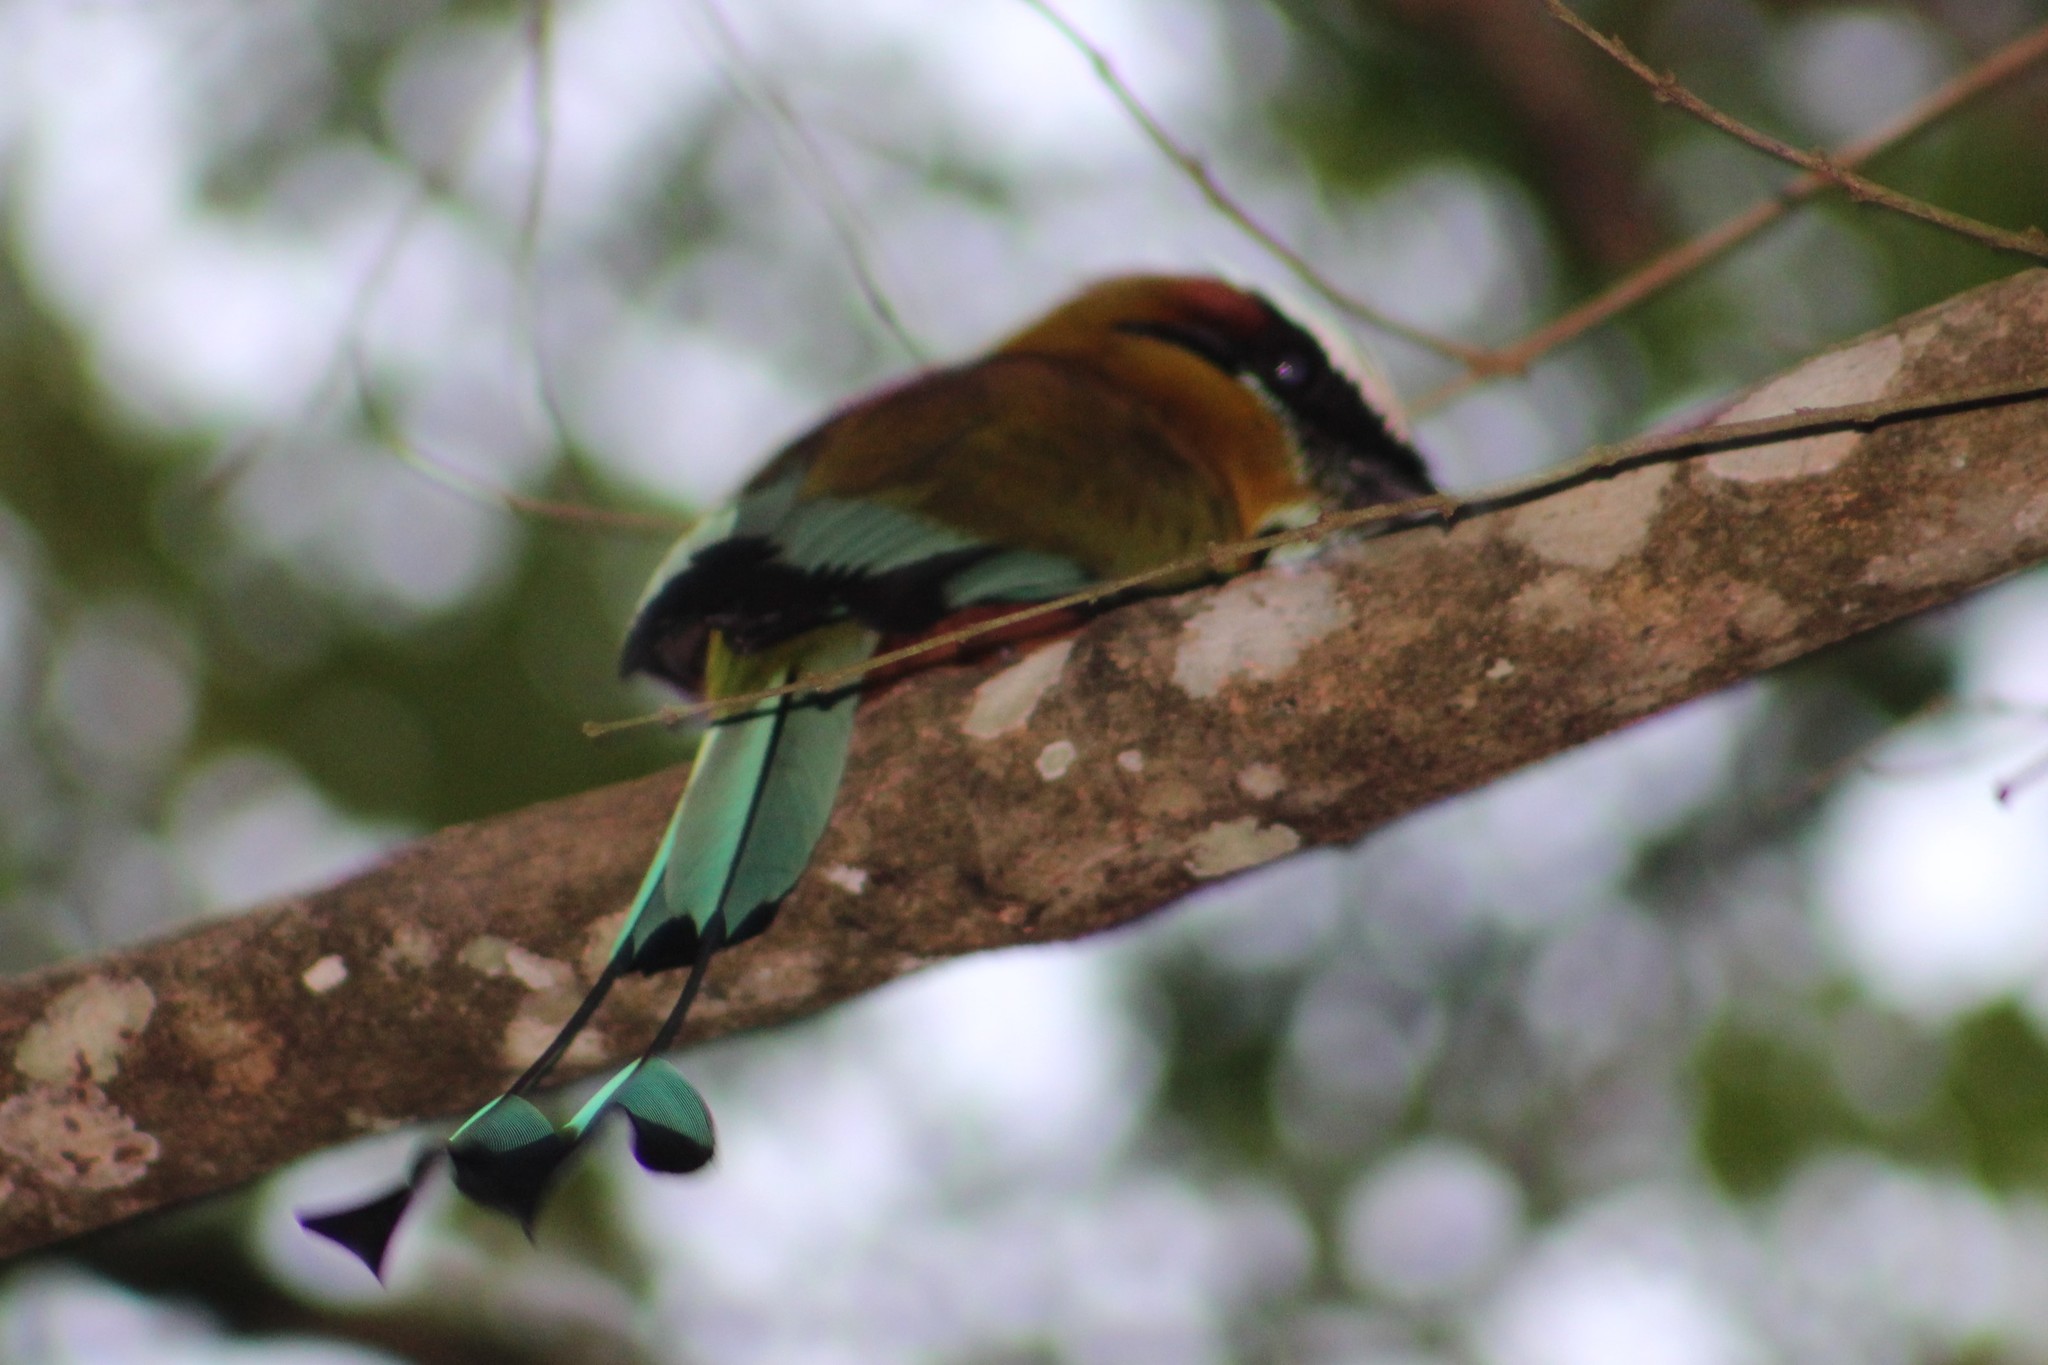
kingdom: Animalia
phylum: Chordata
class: Aves
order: Coraciiformes
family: Momotidae
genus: Eumomota
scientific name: Eumomota superciliosa
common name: Turquoise-browed motmot
